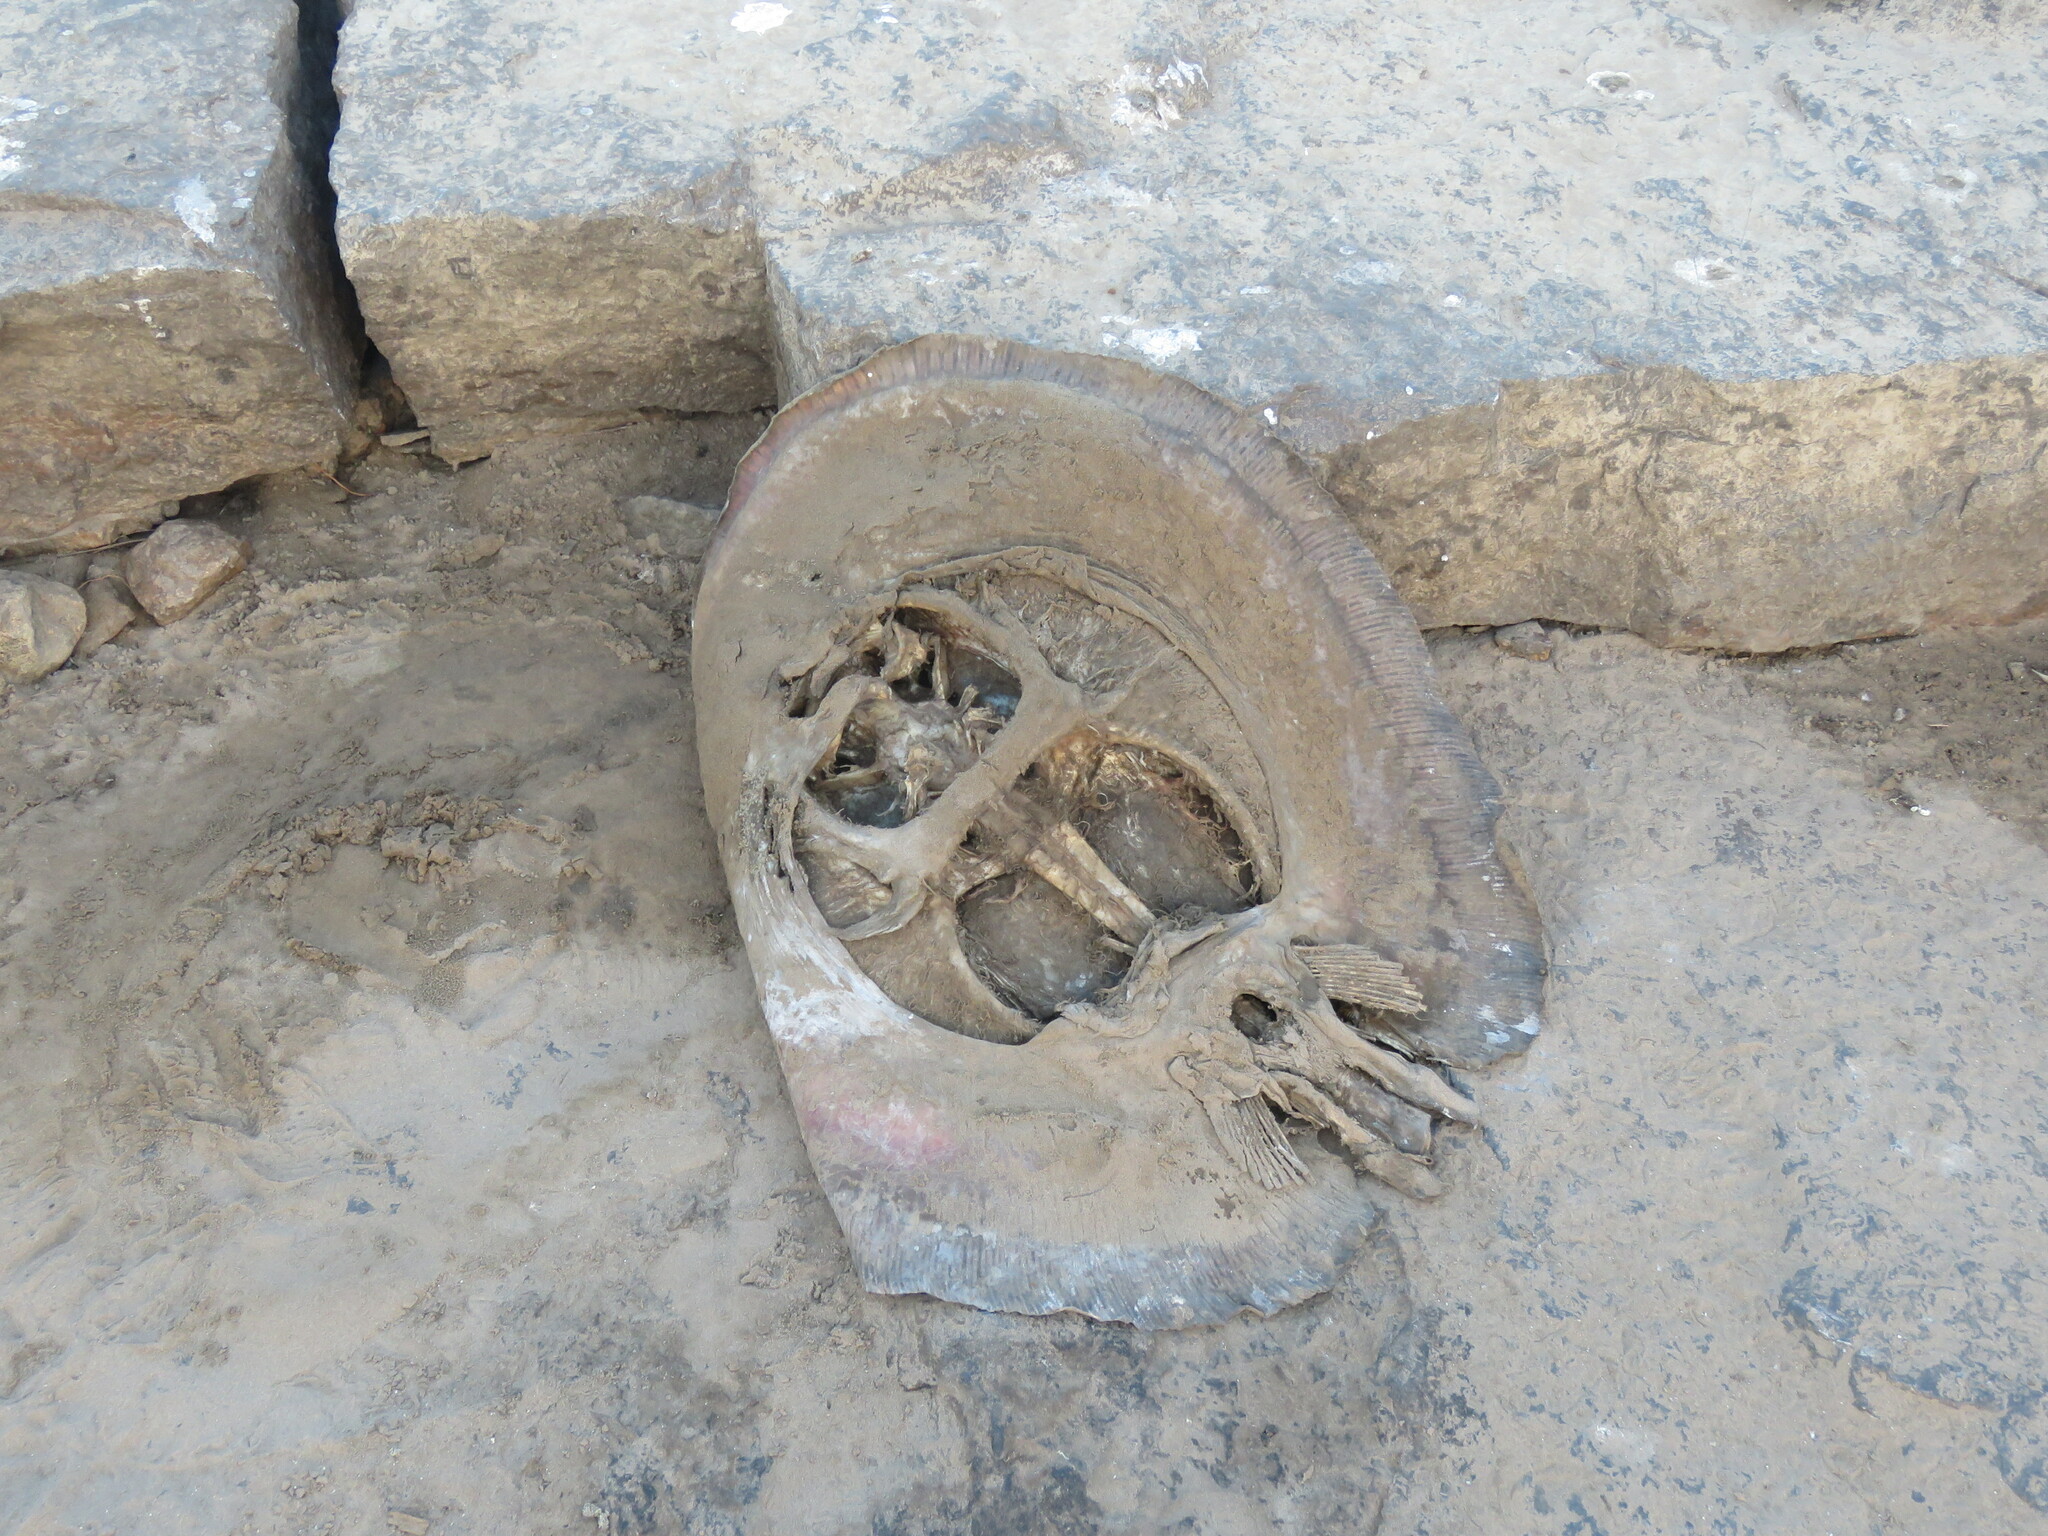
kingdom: Animalia
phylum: Chordata
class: Elasmobranchii
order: Myliobatiformes
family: Potamotrygonidae
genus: Paratrygon
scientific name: Paratrygon aiereba
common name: Discus ray
